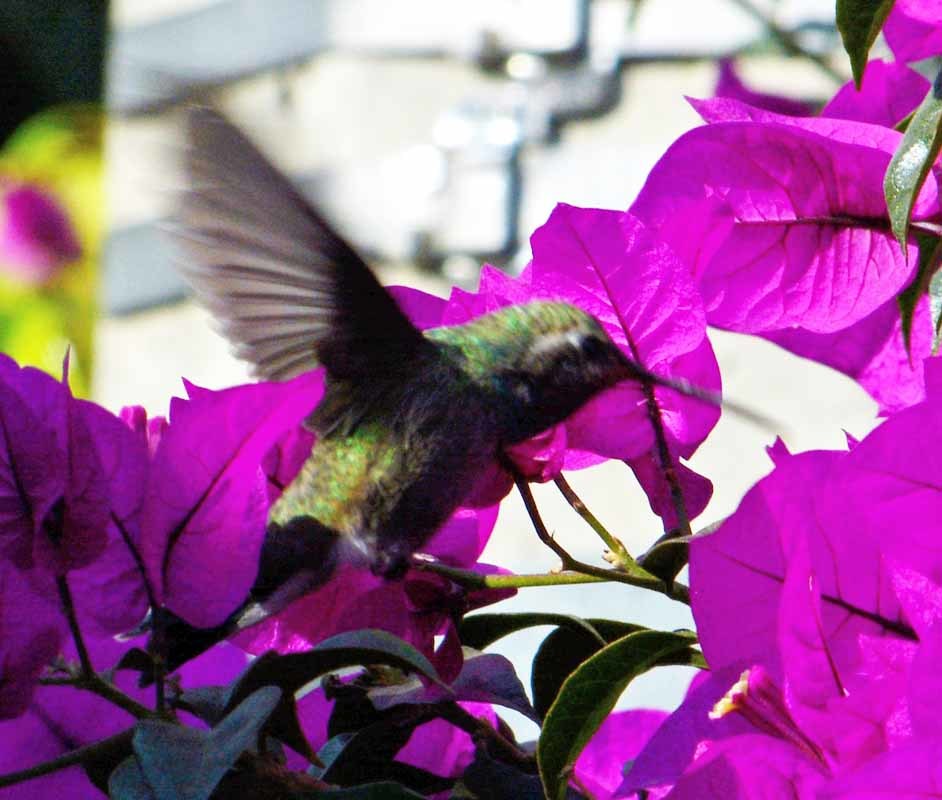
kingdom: Animalia
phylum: Chordata
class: Aves
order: Apodiformes
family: Trochilidae
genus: Cynanthus
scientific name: Cynanthus latirostris
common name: Broad-billed hummingbird
